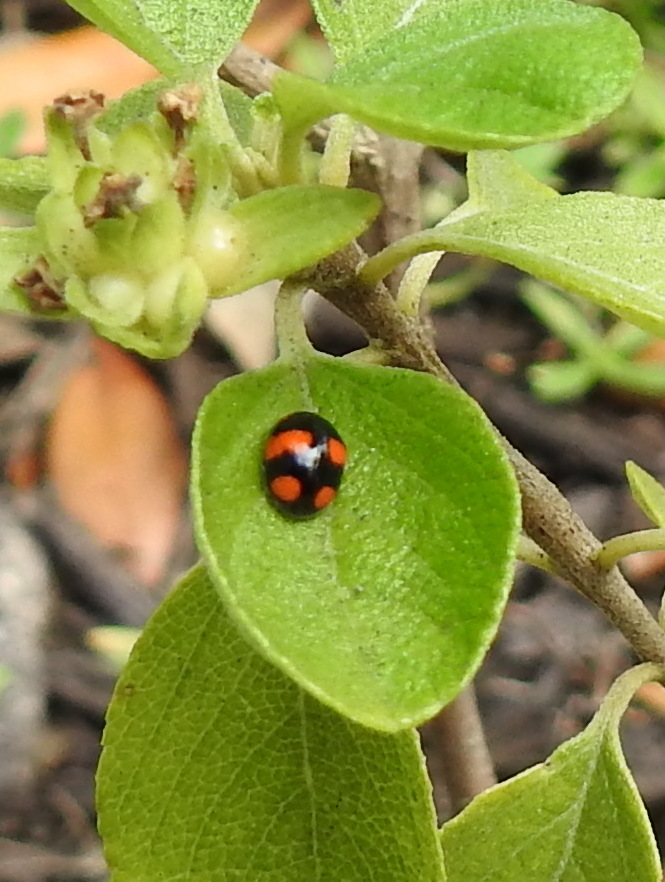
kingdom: Animalia
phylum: Arthropoda
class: Insecta
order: Coleoptera
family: Coccinellidae
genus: Brachiacantha
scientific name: Brachiacantha dentipes
